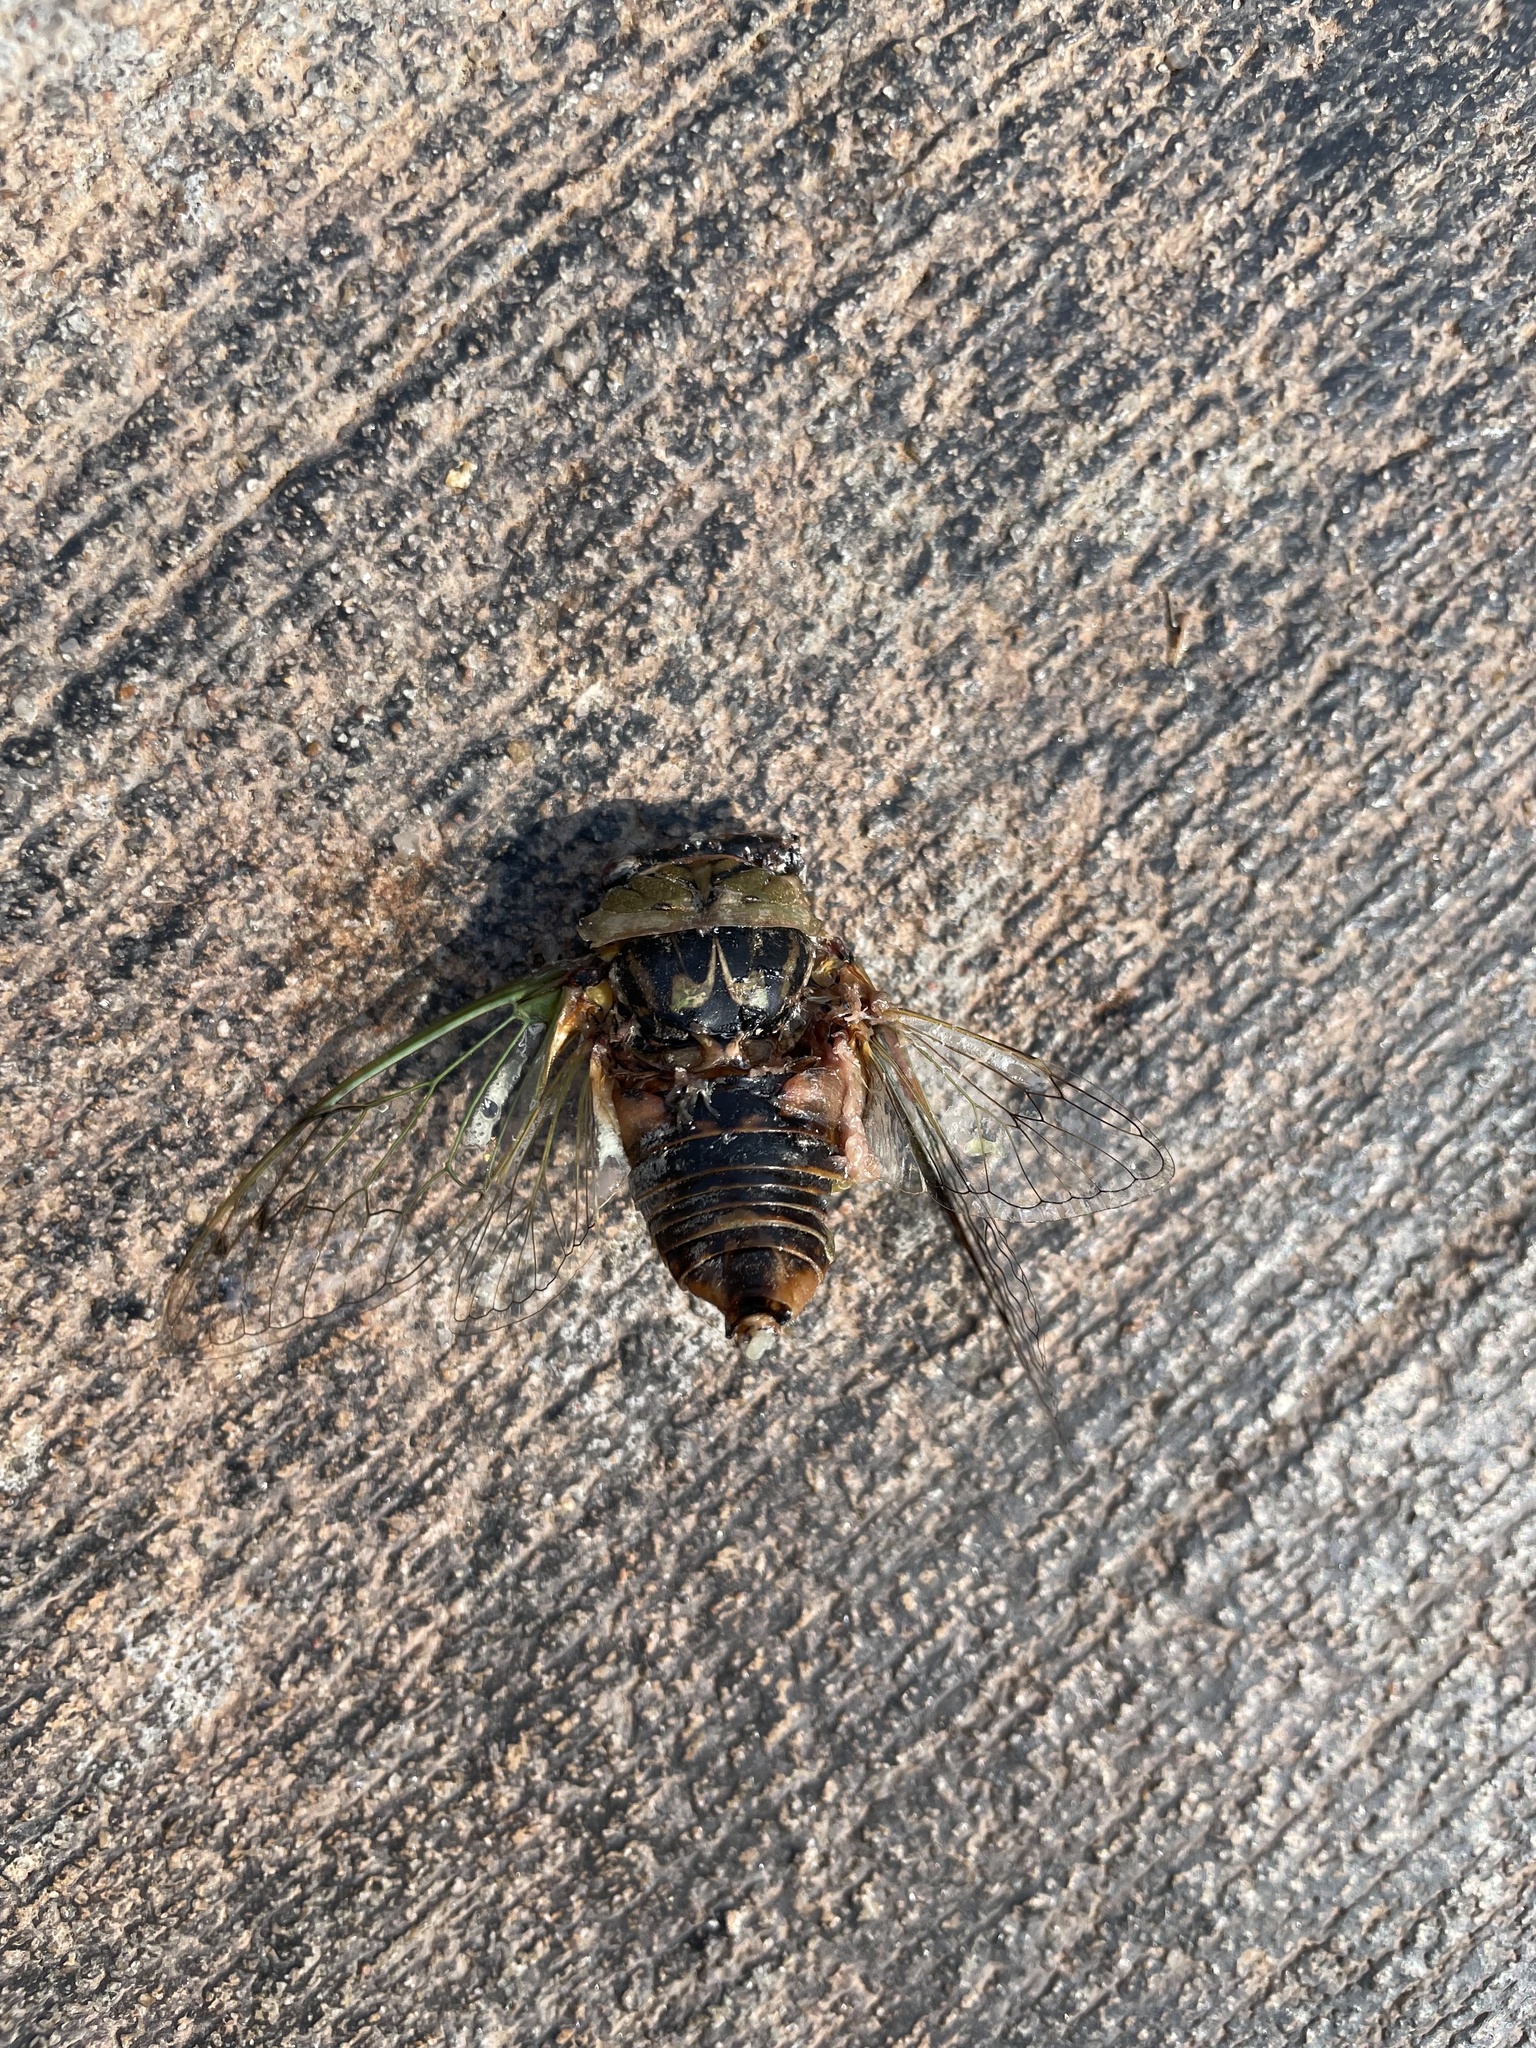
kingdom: Animalia
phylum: Arthropoda
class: Insecta
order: Hemiptera
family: Cicadidae
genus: Megatibicen
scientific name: Megatibicen resh
